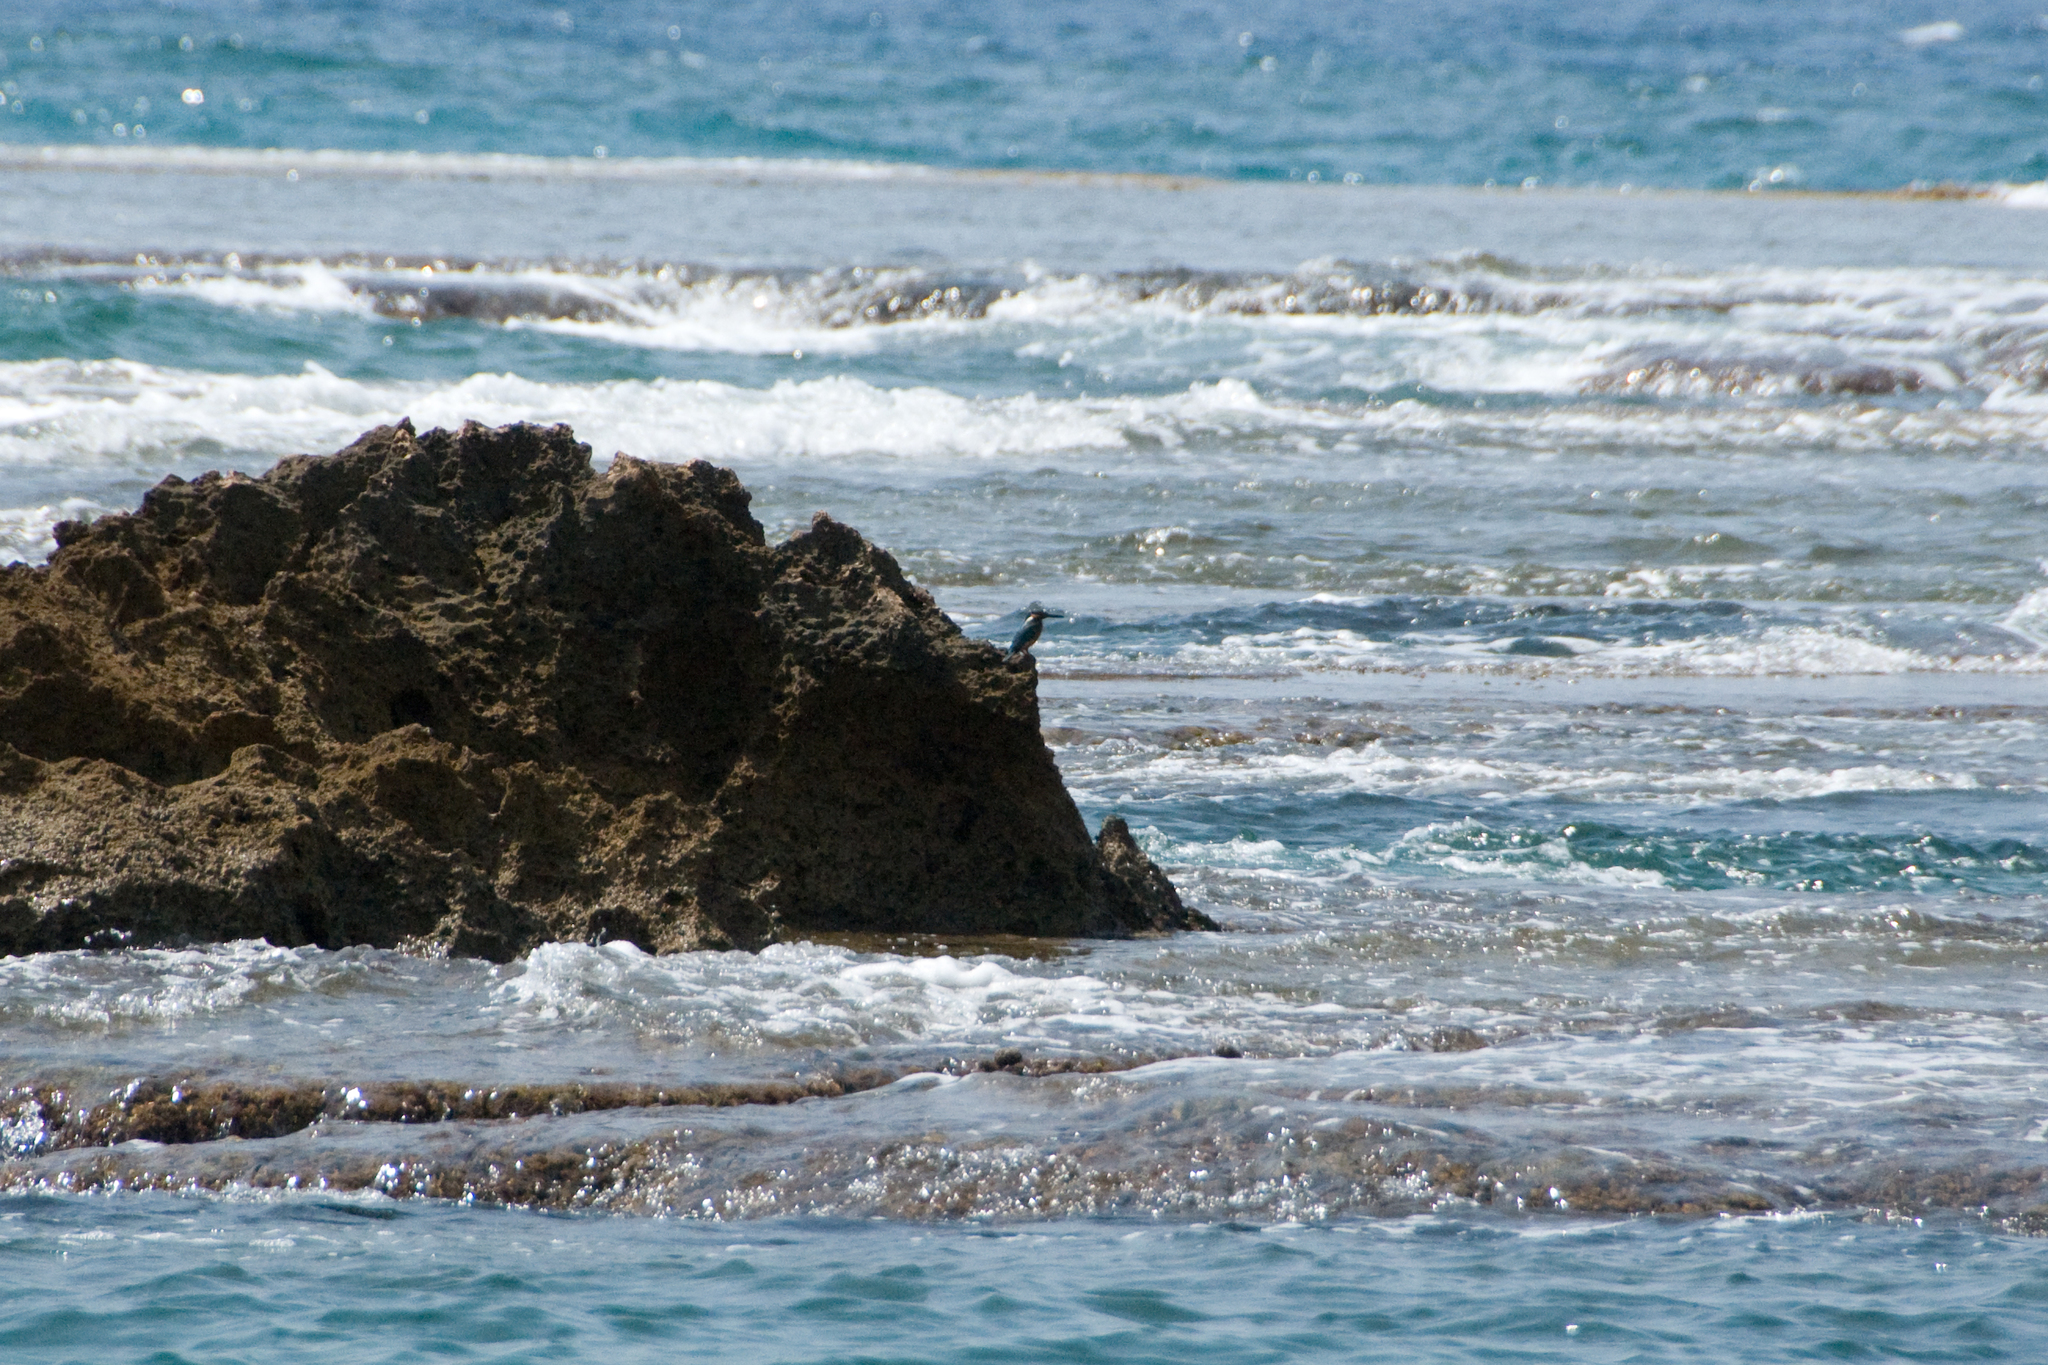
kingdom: Animalia
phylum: Chordata
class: Aves
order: Coraciiformes
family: Alcedinidae
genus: Alcedo
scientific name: Alcedo atthis
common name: Common kingfisher
